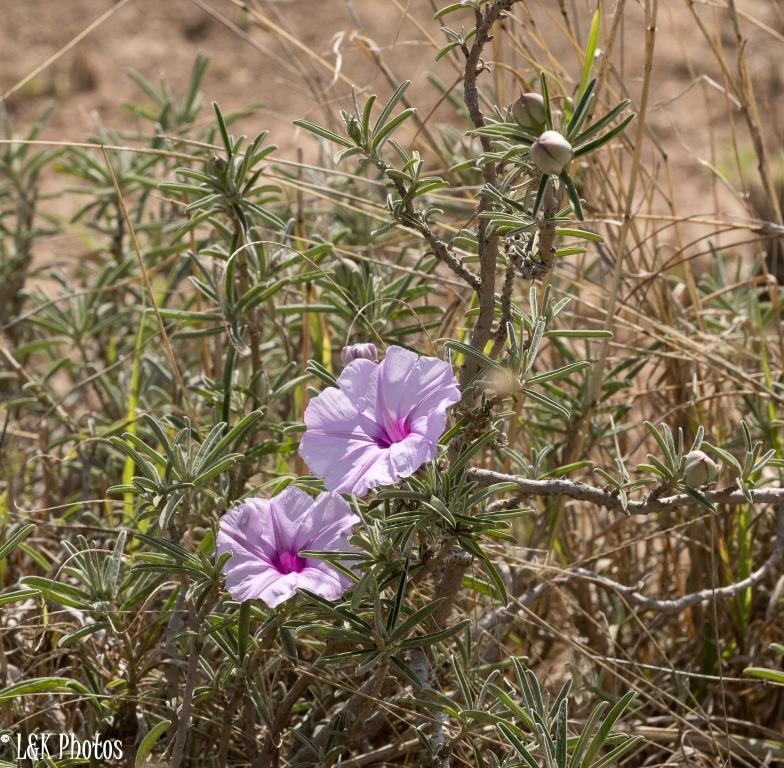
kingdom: Plantae
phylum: Tracheophyta
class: Magnoliopsida
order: Solanales
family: Convolvulaceae
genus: Ipomoea
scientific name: Ipomoea jaegeri
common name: Morningglory
